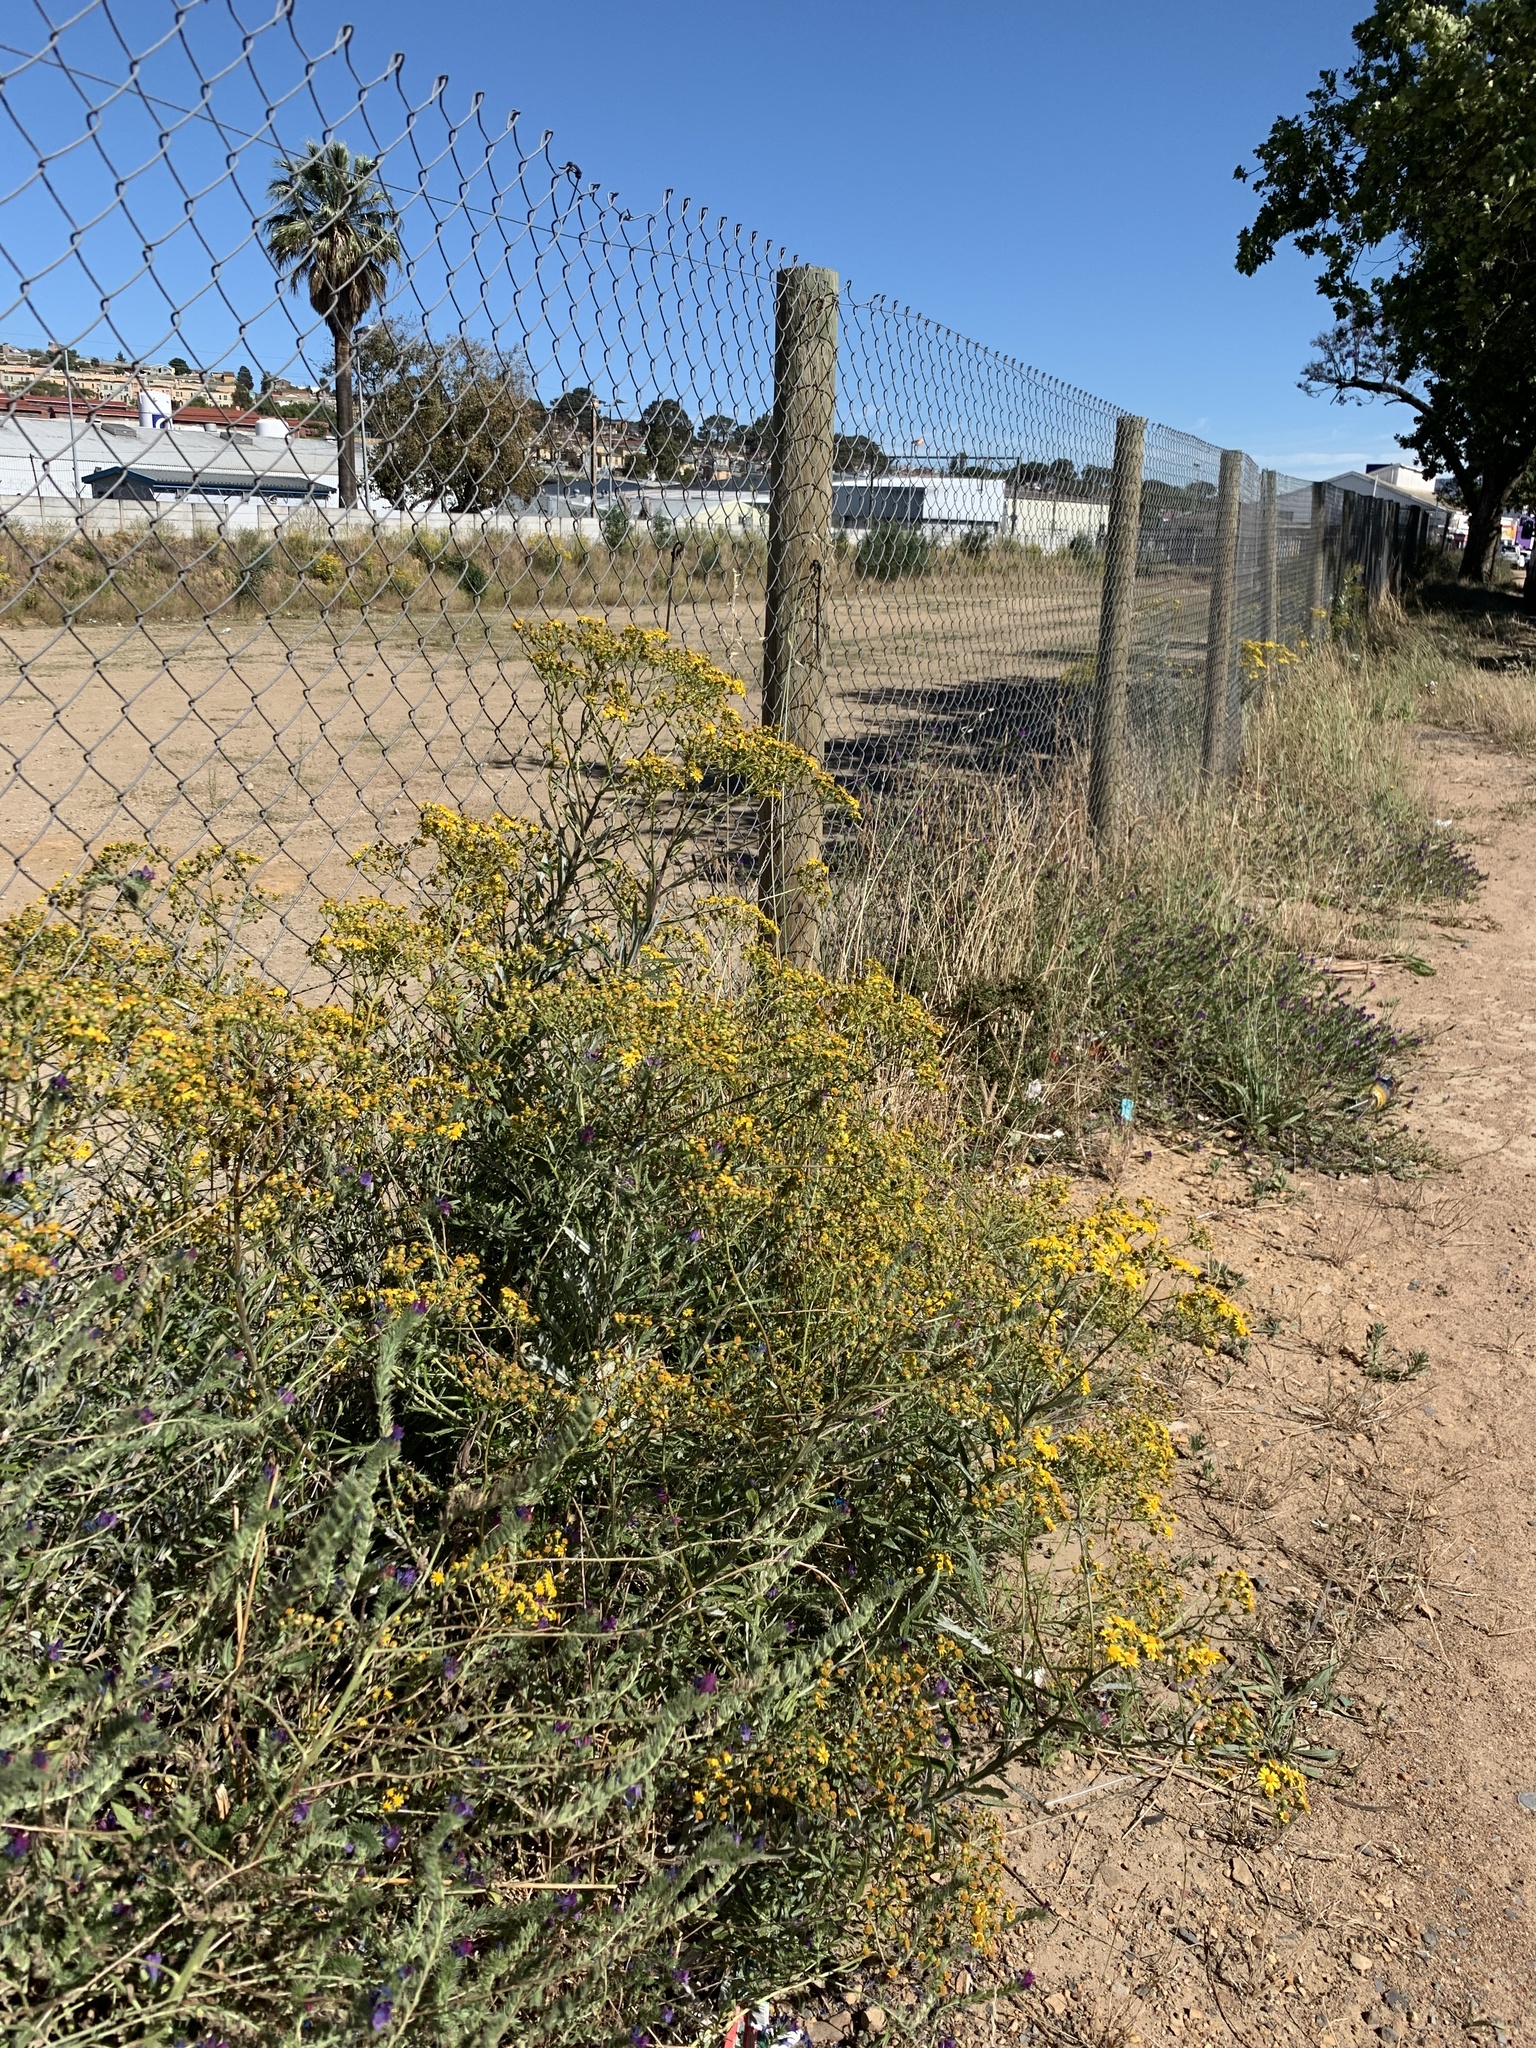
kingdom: Plantae
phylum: Tracheophyta
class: Magnoliopsida
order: Asterales
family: Asteraceae
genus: Senecio
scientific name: Senecio pterophorus
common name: Shoddy ragwort
